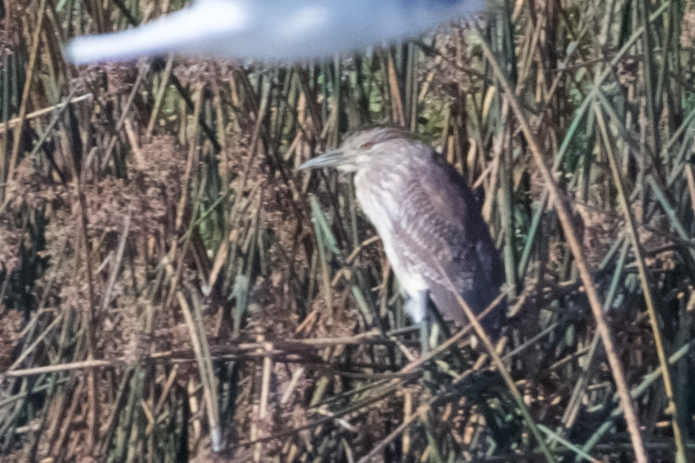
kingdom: Animalia
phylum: Chordata
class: Aves
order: Pelecaniformes
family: Ardeidae
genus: Nycticorax
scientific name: Nycticorax nycticorax
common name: Black-crowned night heron
